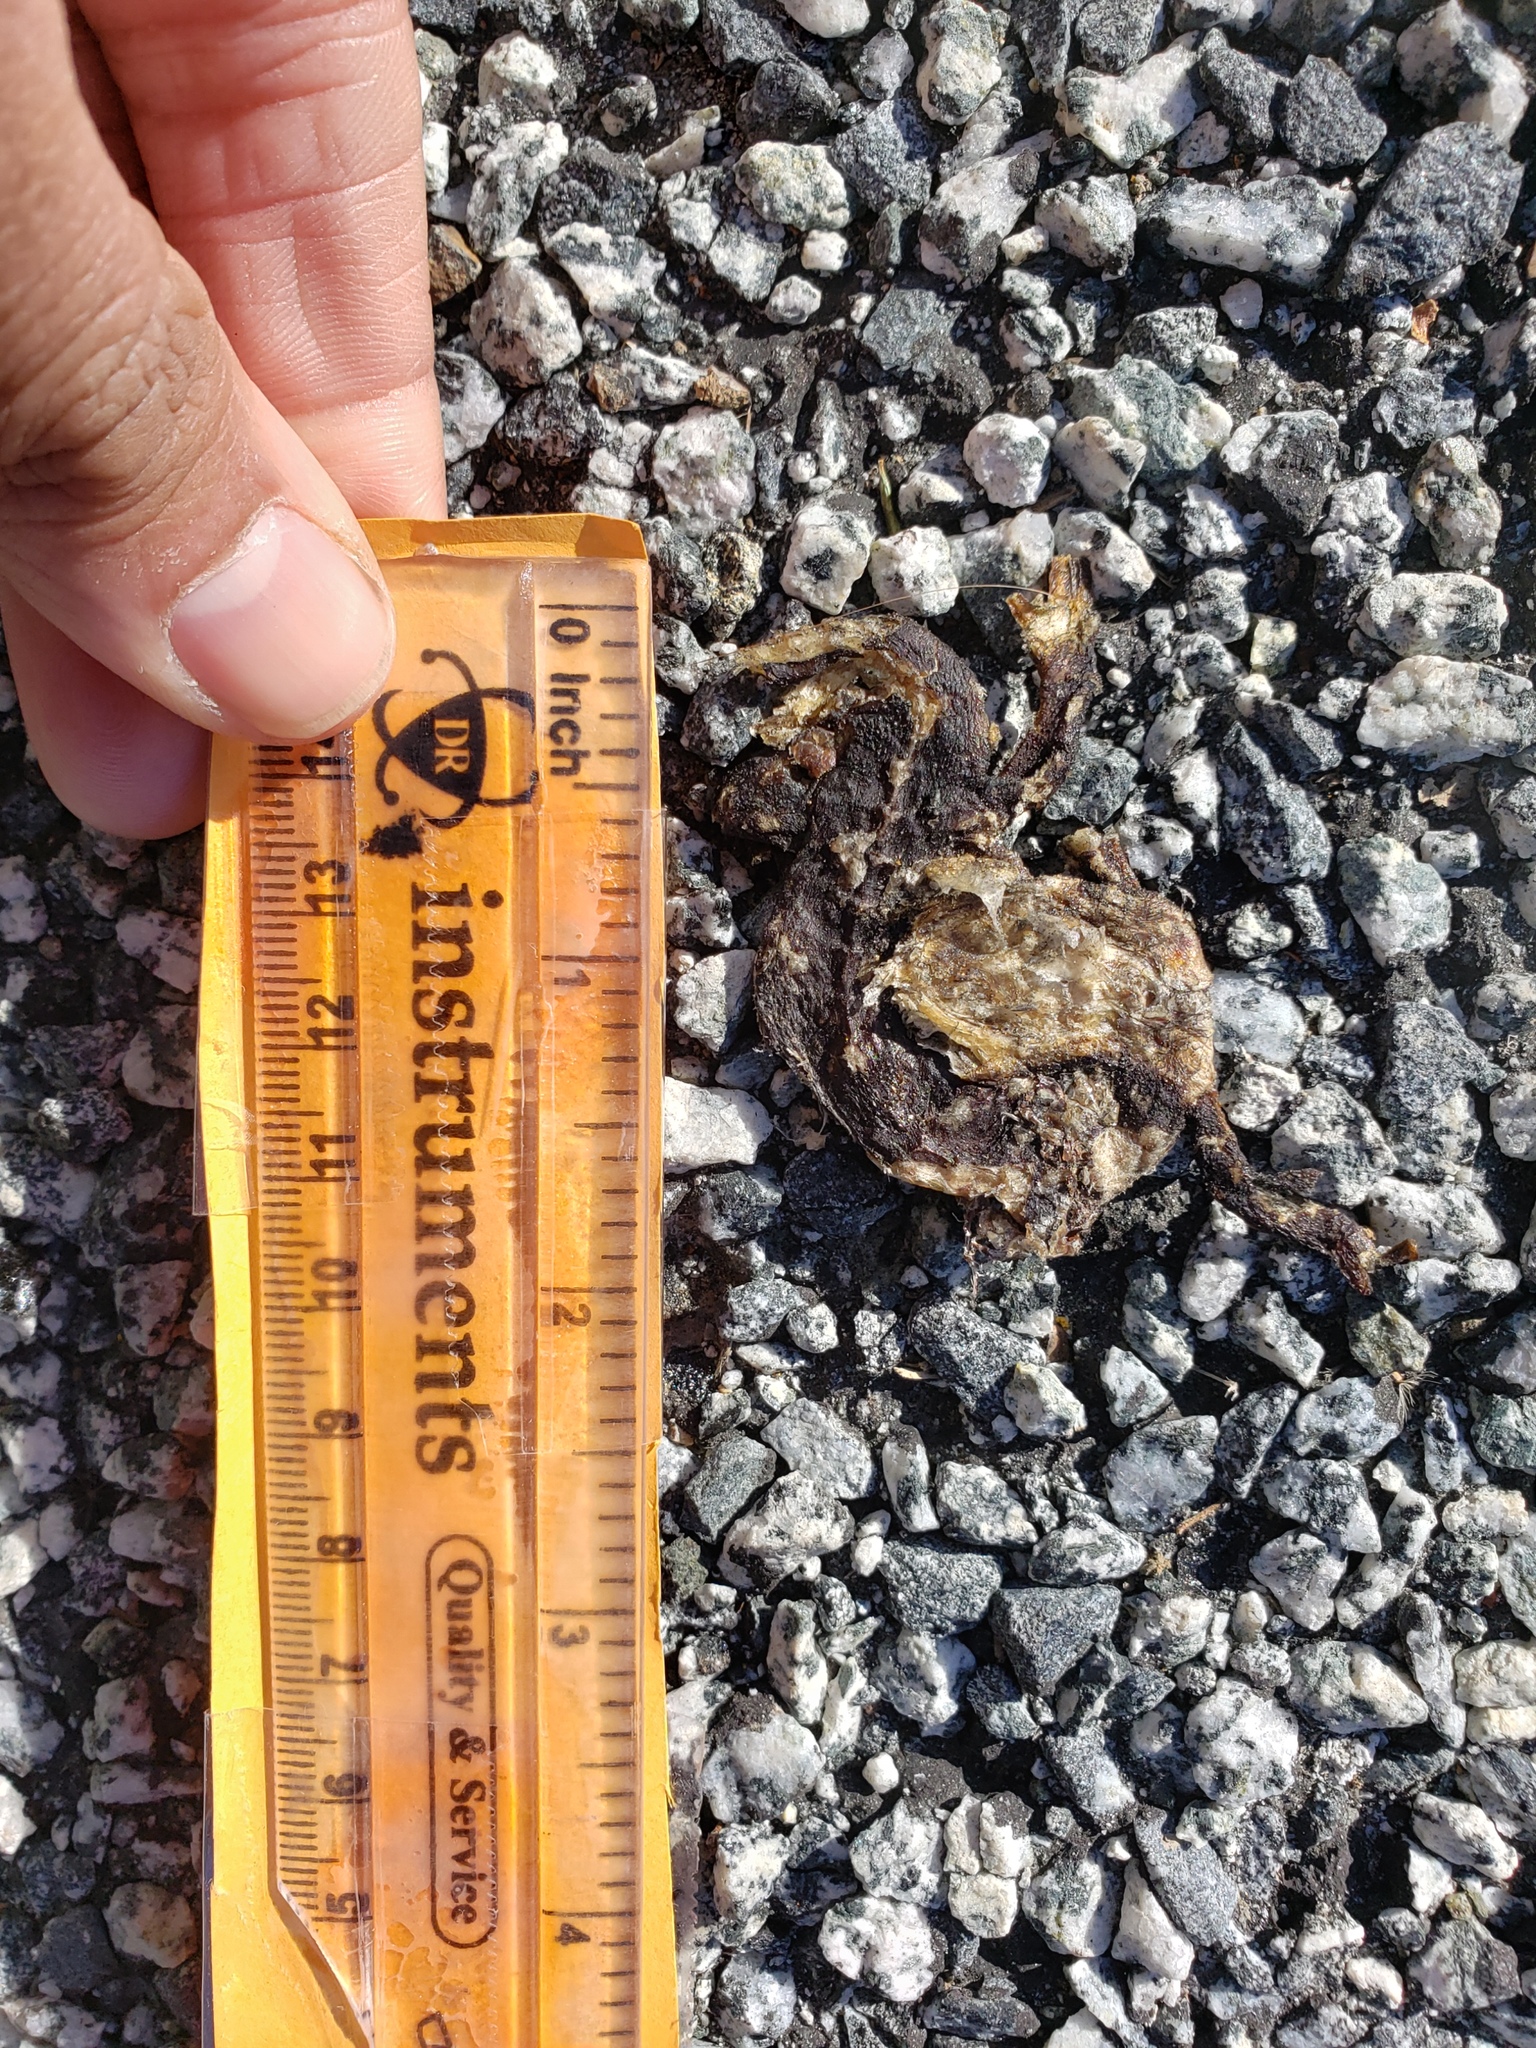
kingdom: Animalia
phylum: Chordata
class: Amphibia
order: Caudata
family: Salamandridae
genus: Taricha
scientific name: Taricha
